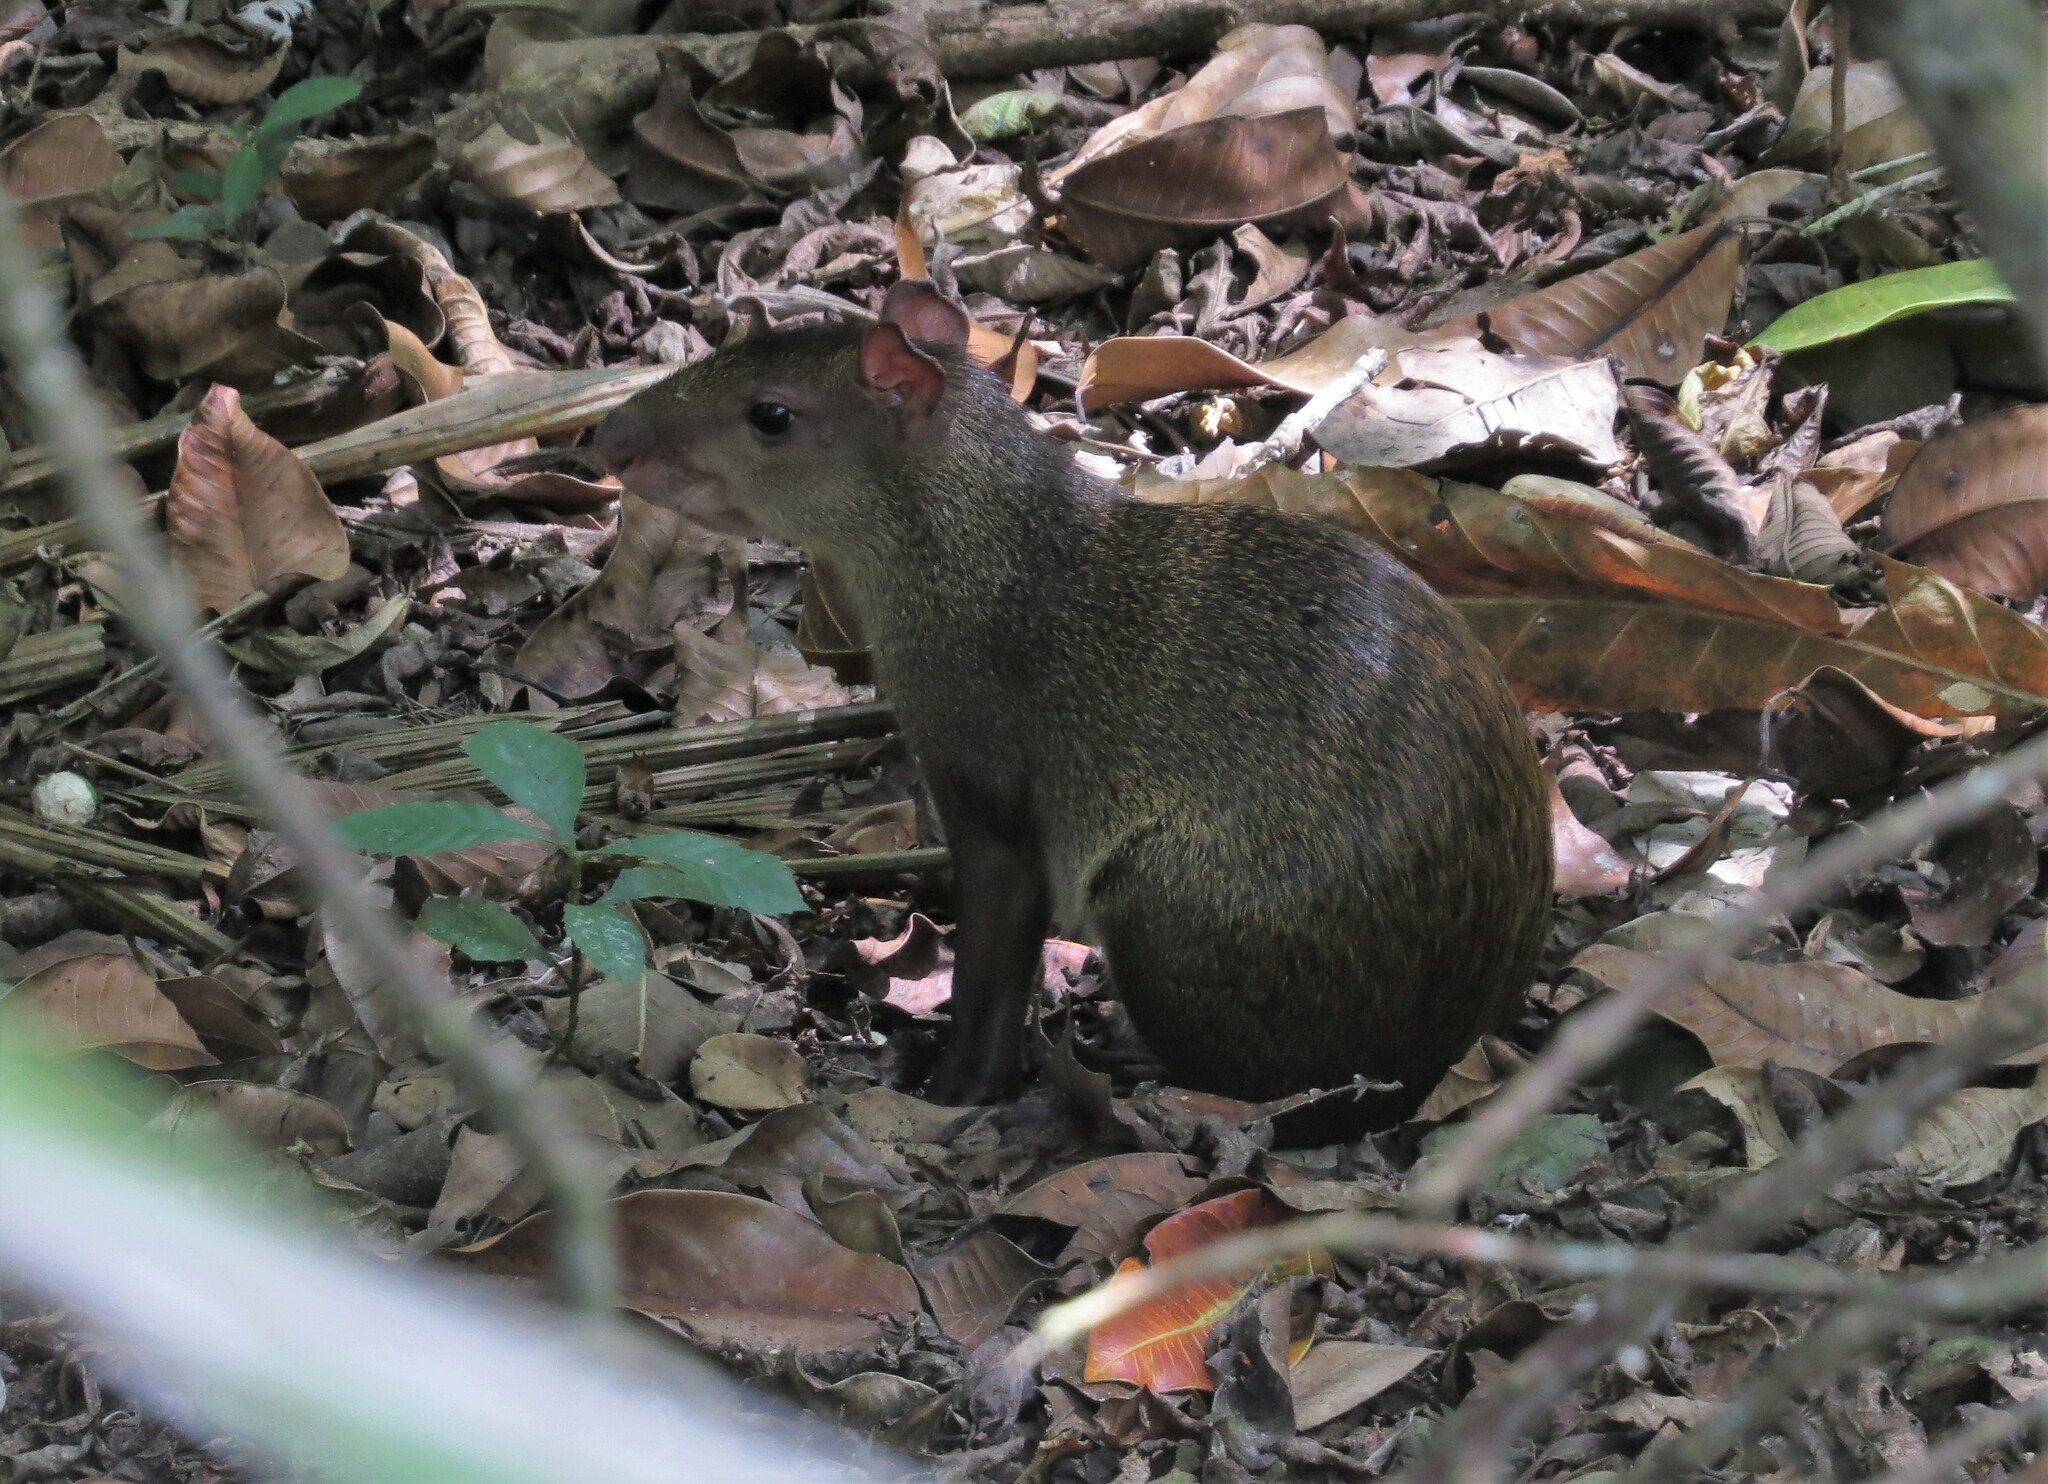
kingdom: Animalia
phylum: Chordata
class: Mammalia
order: Rodentia
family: Dasyproctidae
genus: Dasyprocta
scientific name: Dasyprocta punctata
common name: Central american agouti
